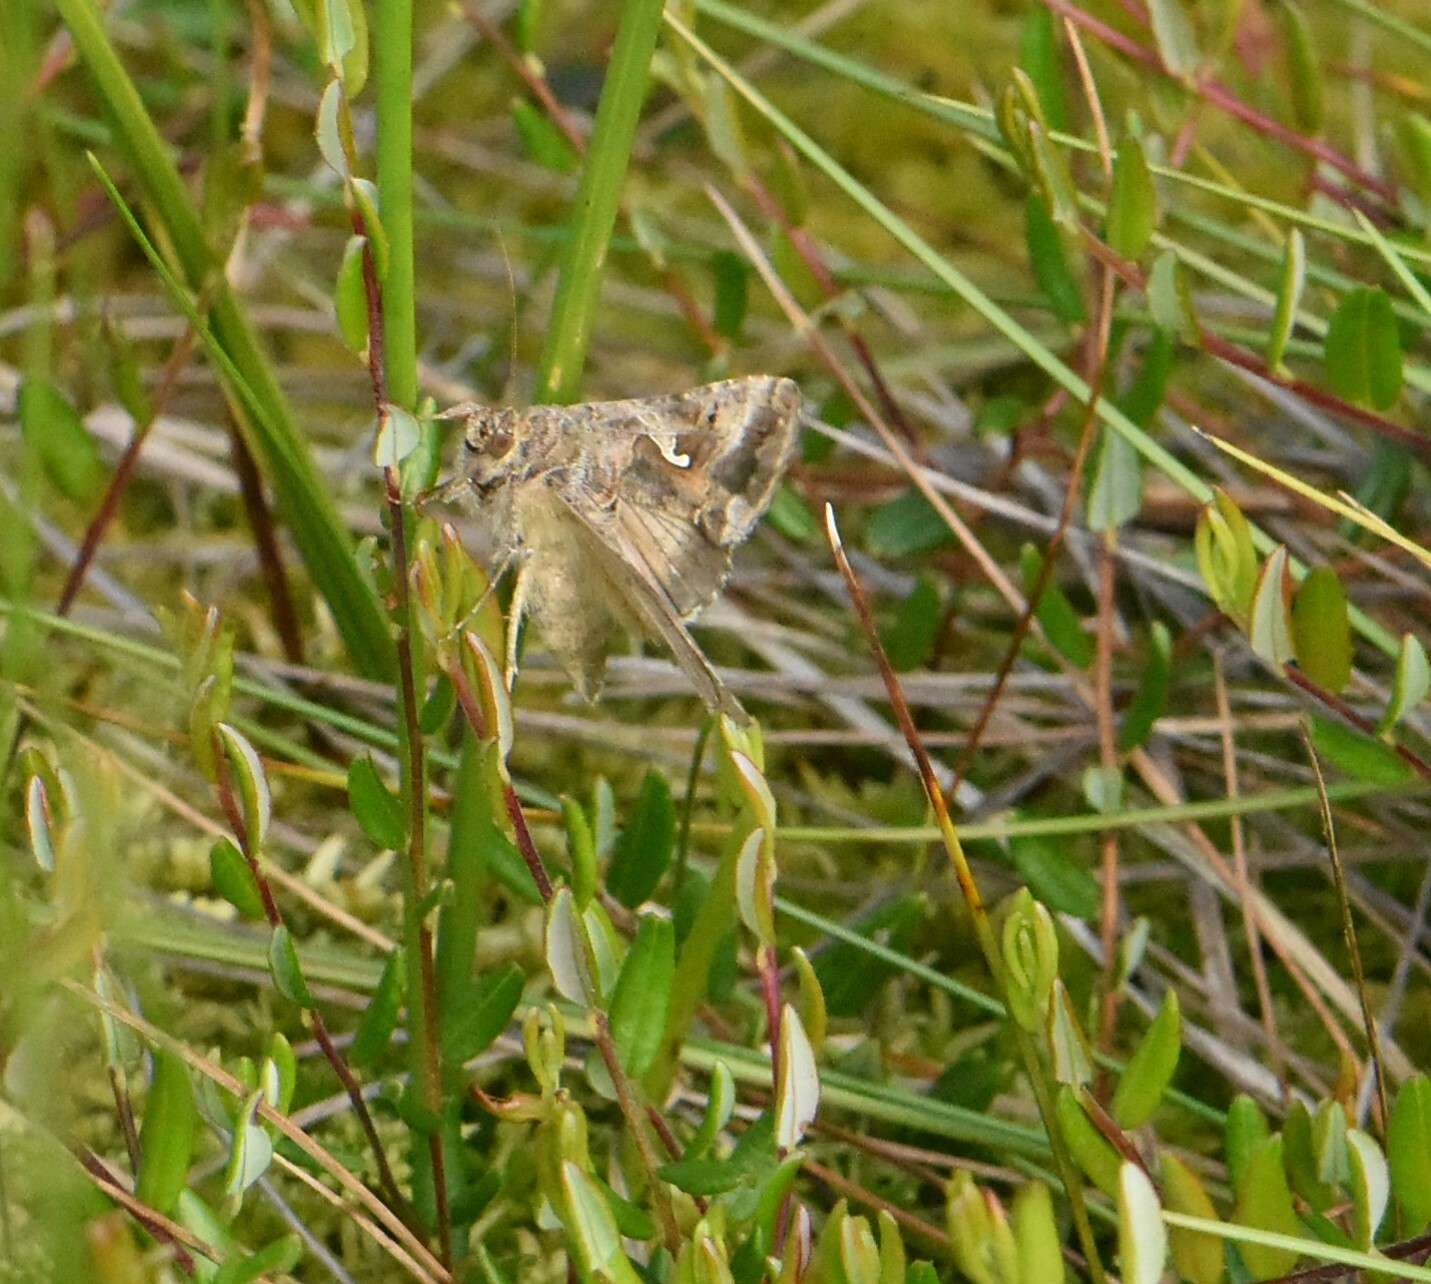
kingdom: Animalia
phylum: Arthropoda
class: Insecta
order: Lepidoptera
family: Noctuidae
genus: Autographa
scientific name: Autographa gamma
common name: Silver y
